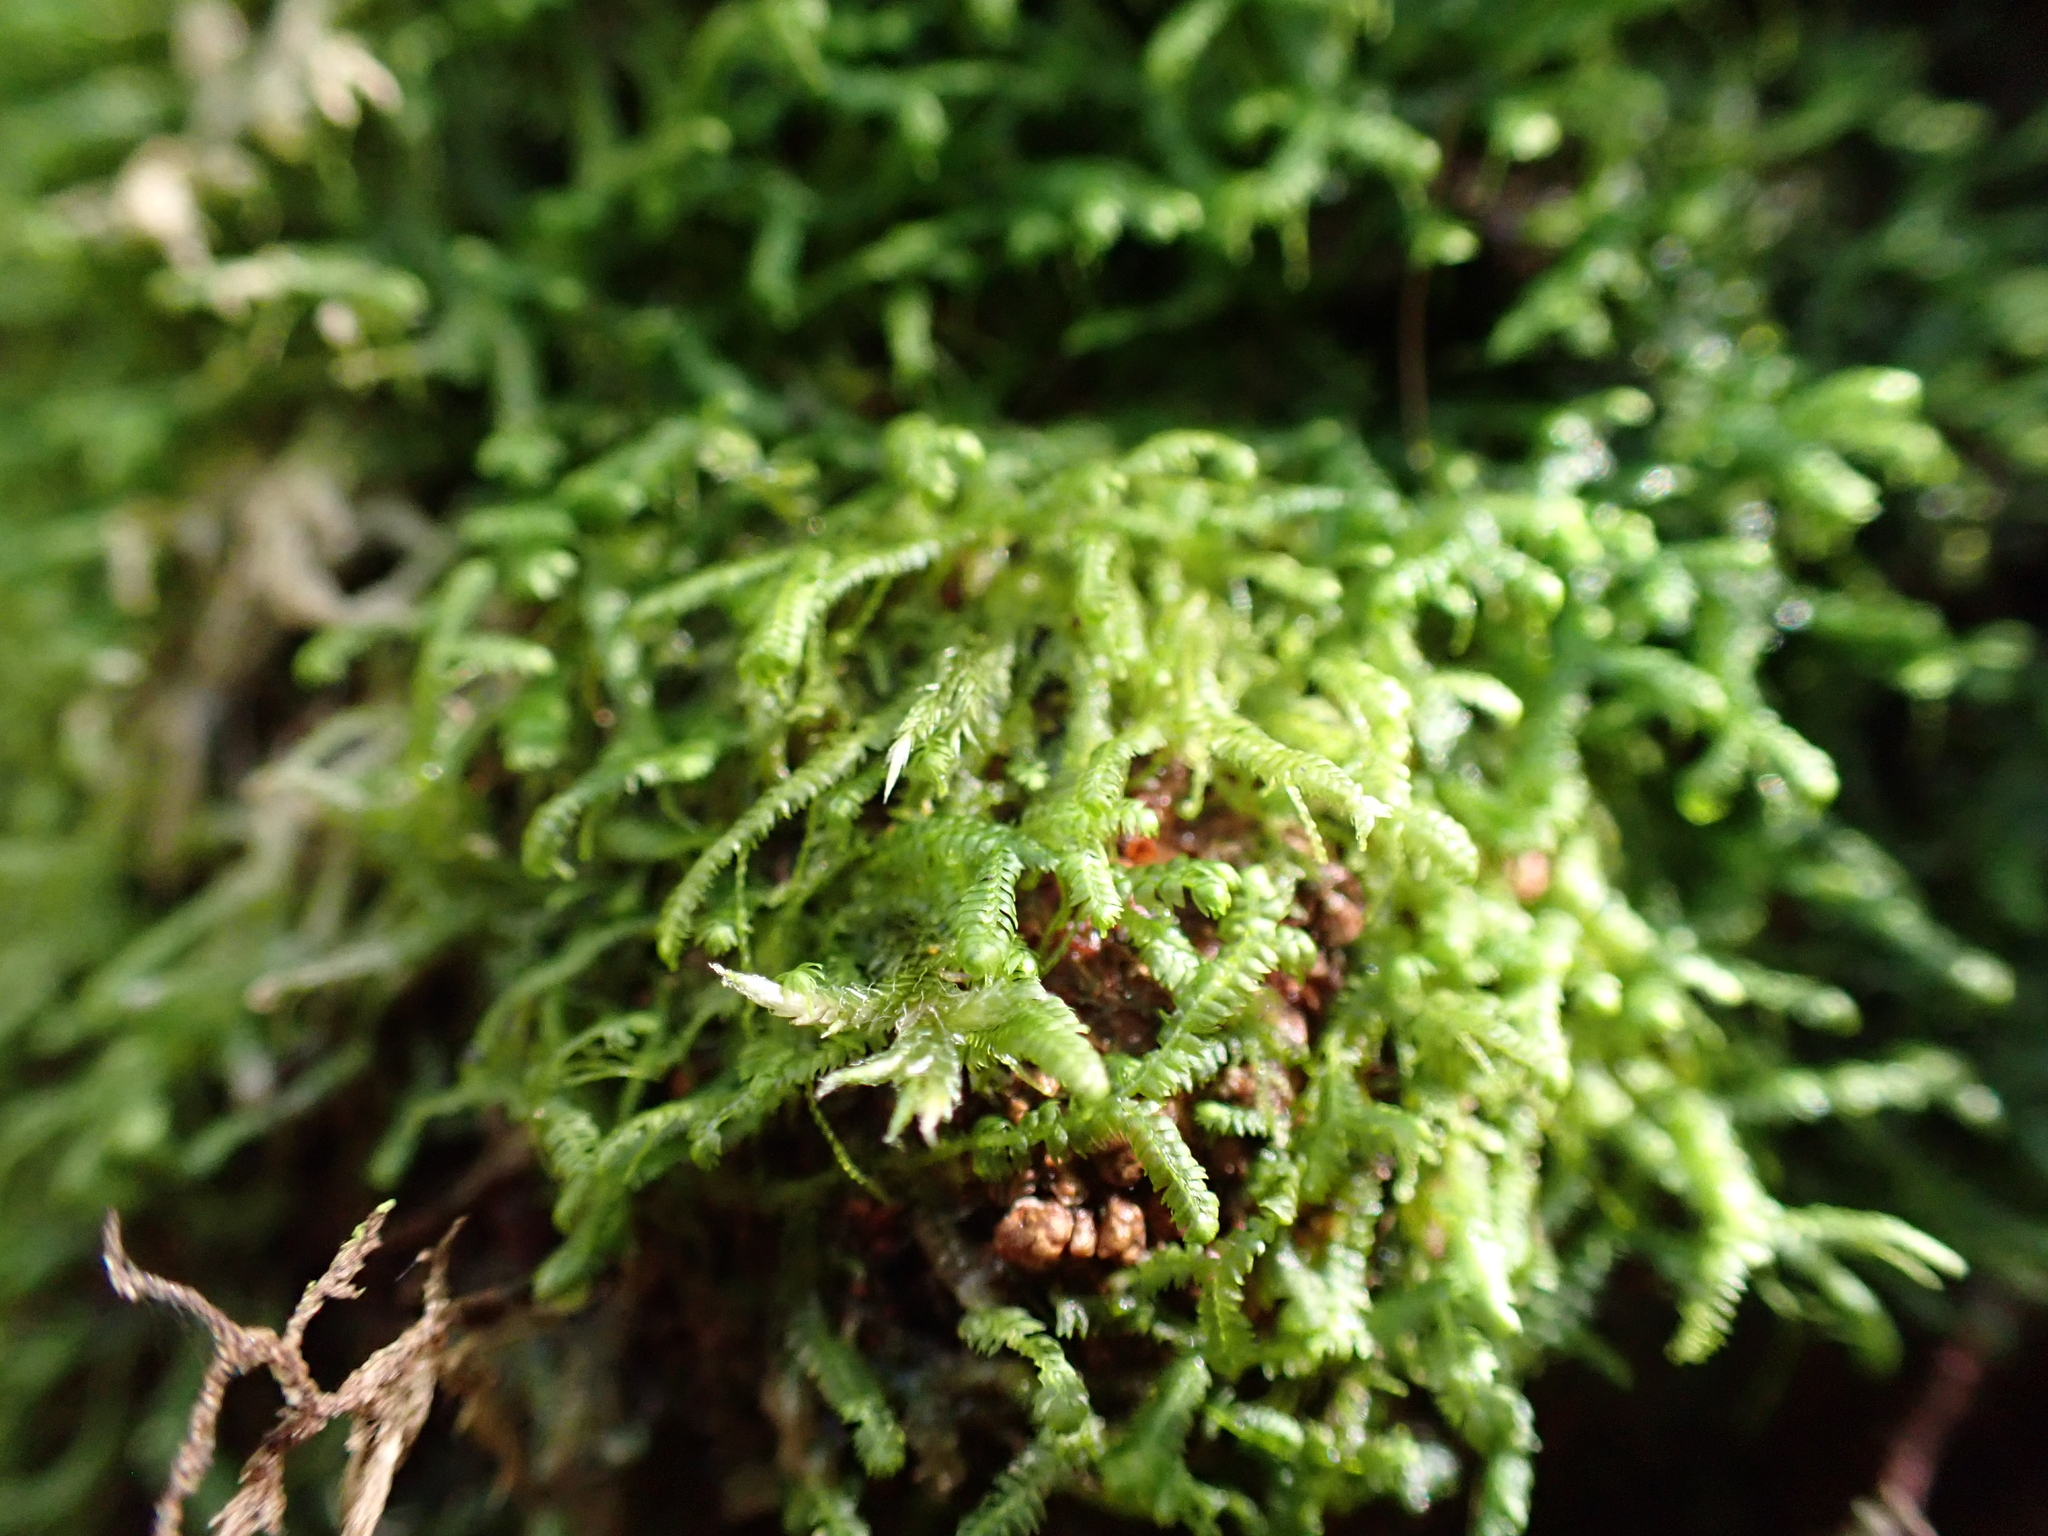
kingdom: Plantae
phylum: Marchantiophyta
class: Jungermanniopsida
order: Jungermanniales
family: Lepidoziaceae
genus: Acromastigum
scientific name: Acromastigum colensoanum
